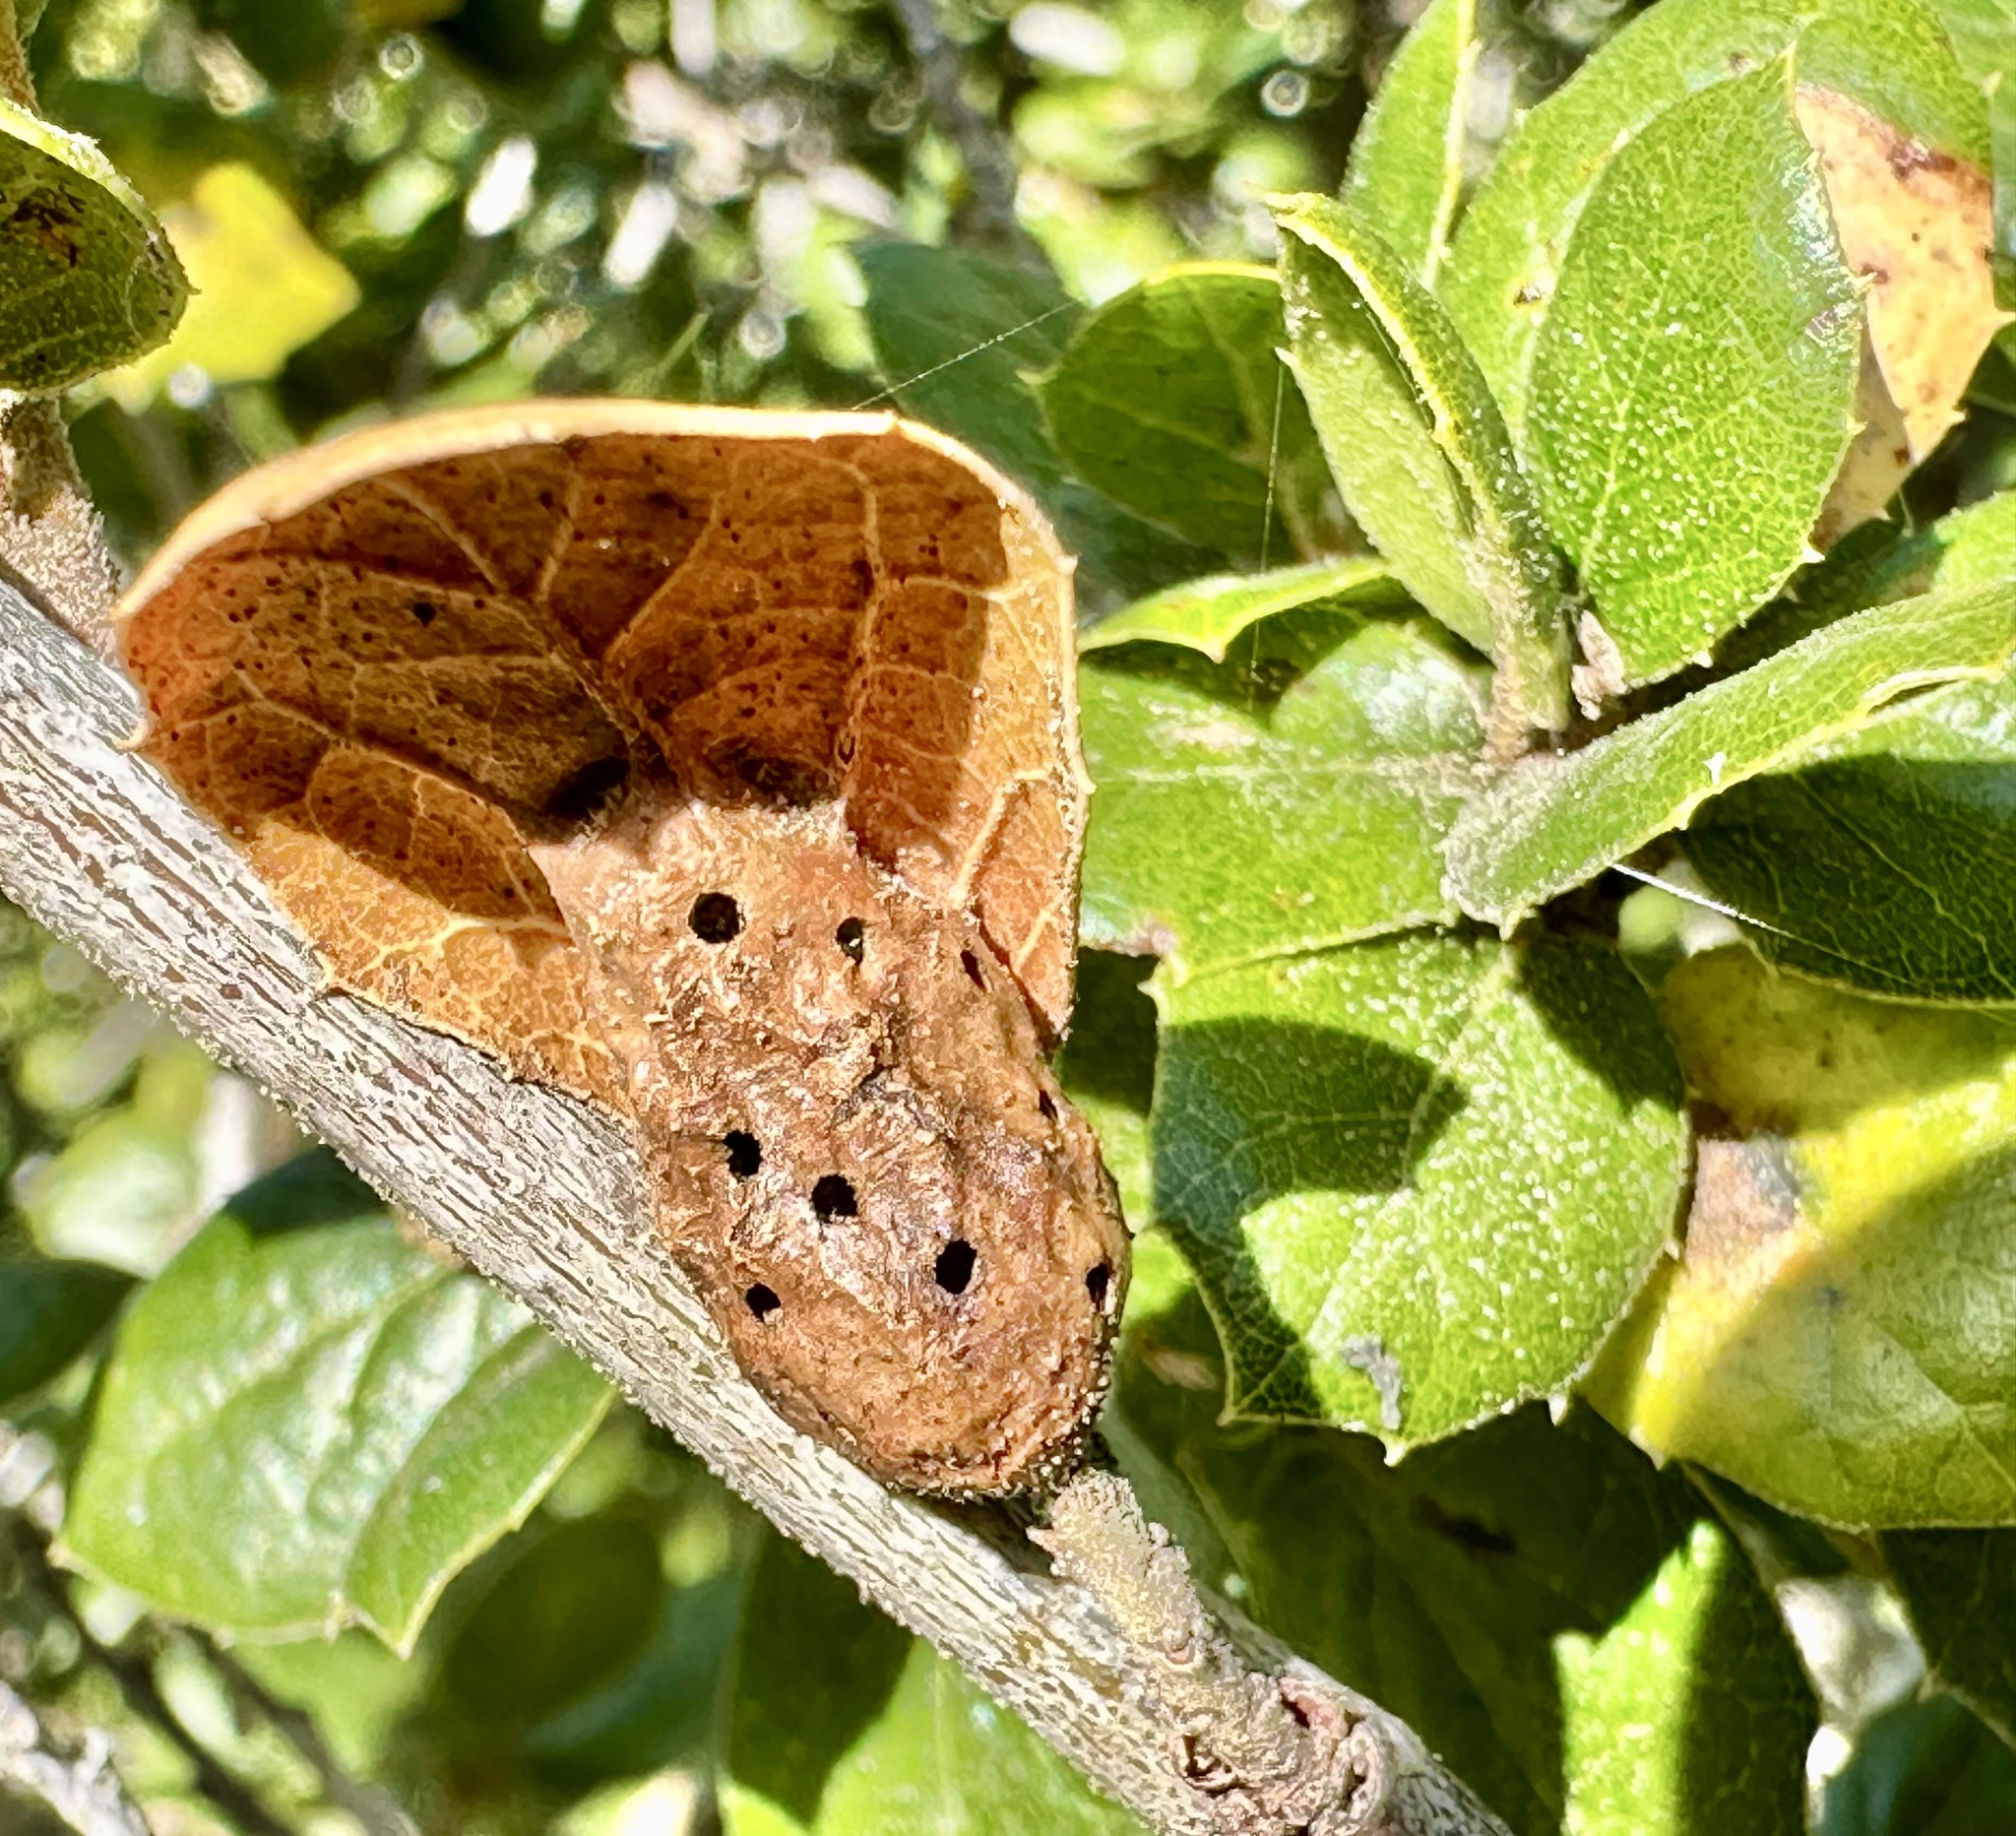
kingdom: Animalia
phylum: Arthropoda
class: Insecta
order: Hymenoptera
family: Cynipidae
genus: Melikaiella
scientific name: Melikaiella
